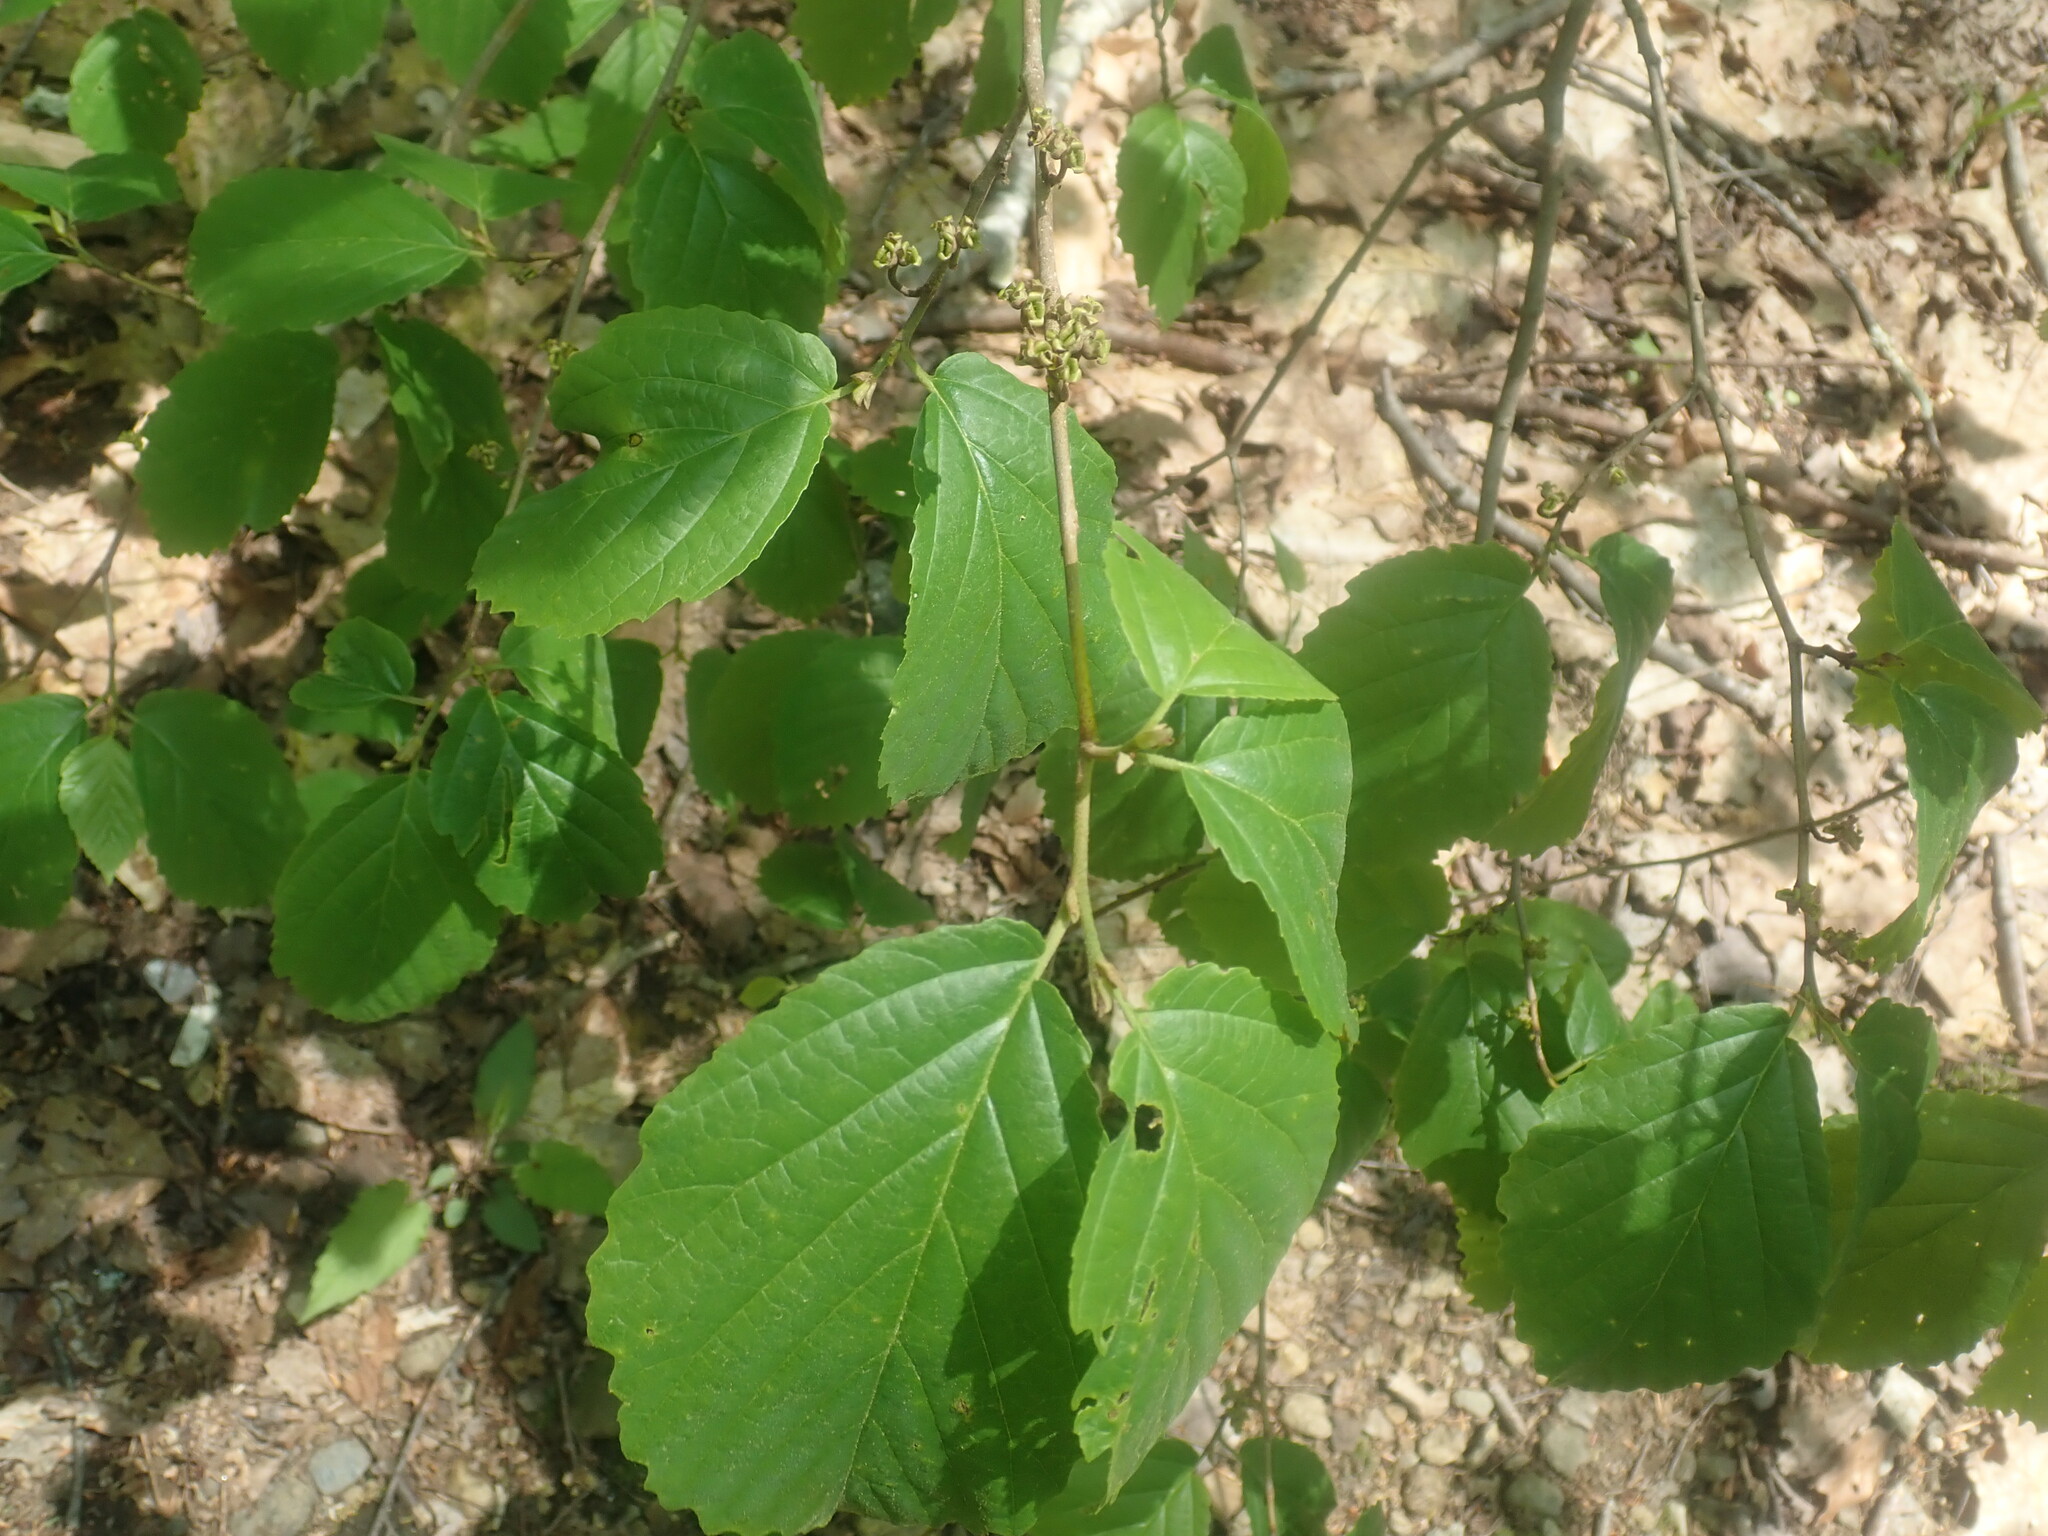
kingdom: Plantae
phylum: Tracheophyta
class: Magnoliopsida
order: Saxifragales
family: Hamamelidaceae
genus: Hamamelis
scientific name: Hamamelis virginiana
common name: Witch-hazel
